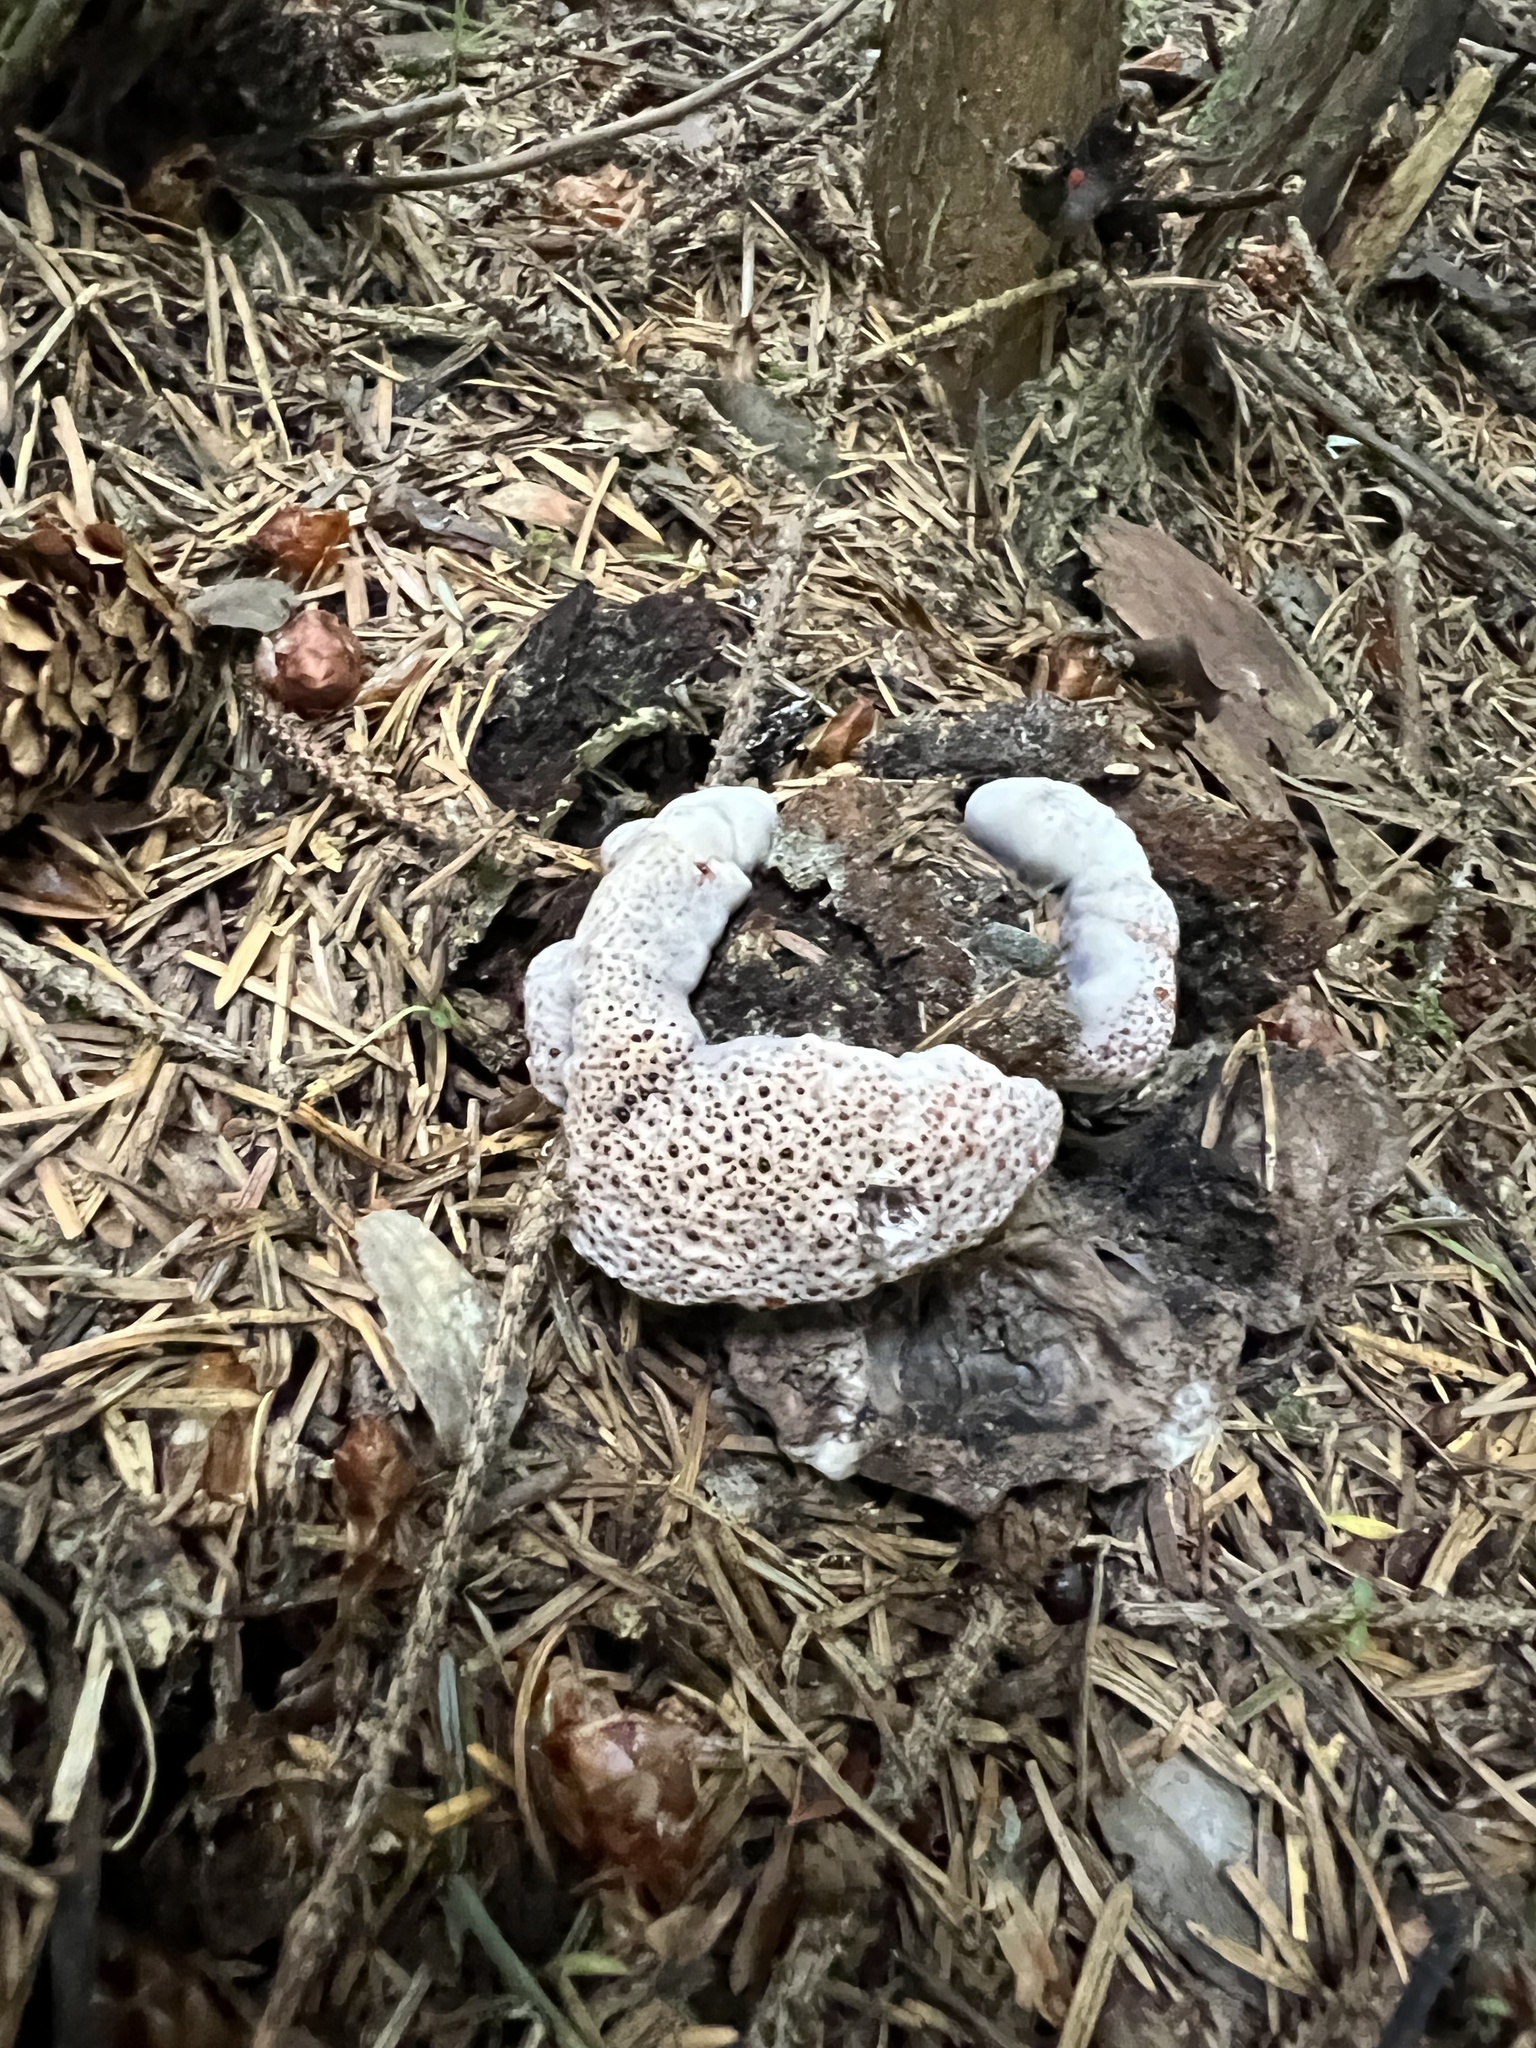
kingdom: Fungi
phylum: Basidiomycota
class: Agaricomycetes
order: Thelephorales
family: Bankeraceae
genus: Hydnellum
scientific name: Hydnellum cyanopodium
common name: Bleeding blue tooth
